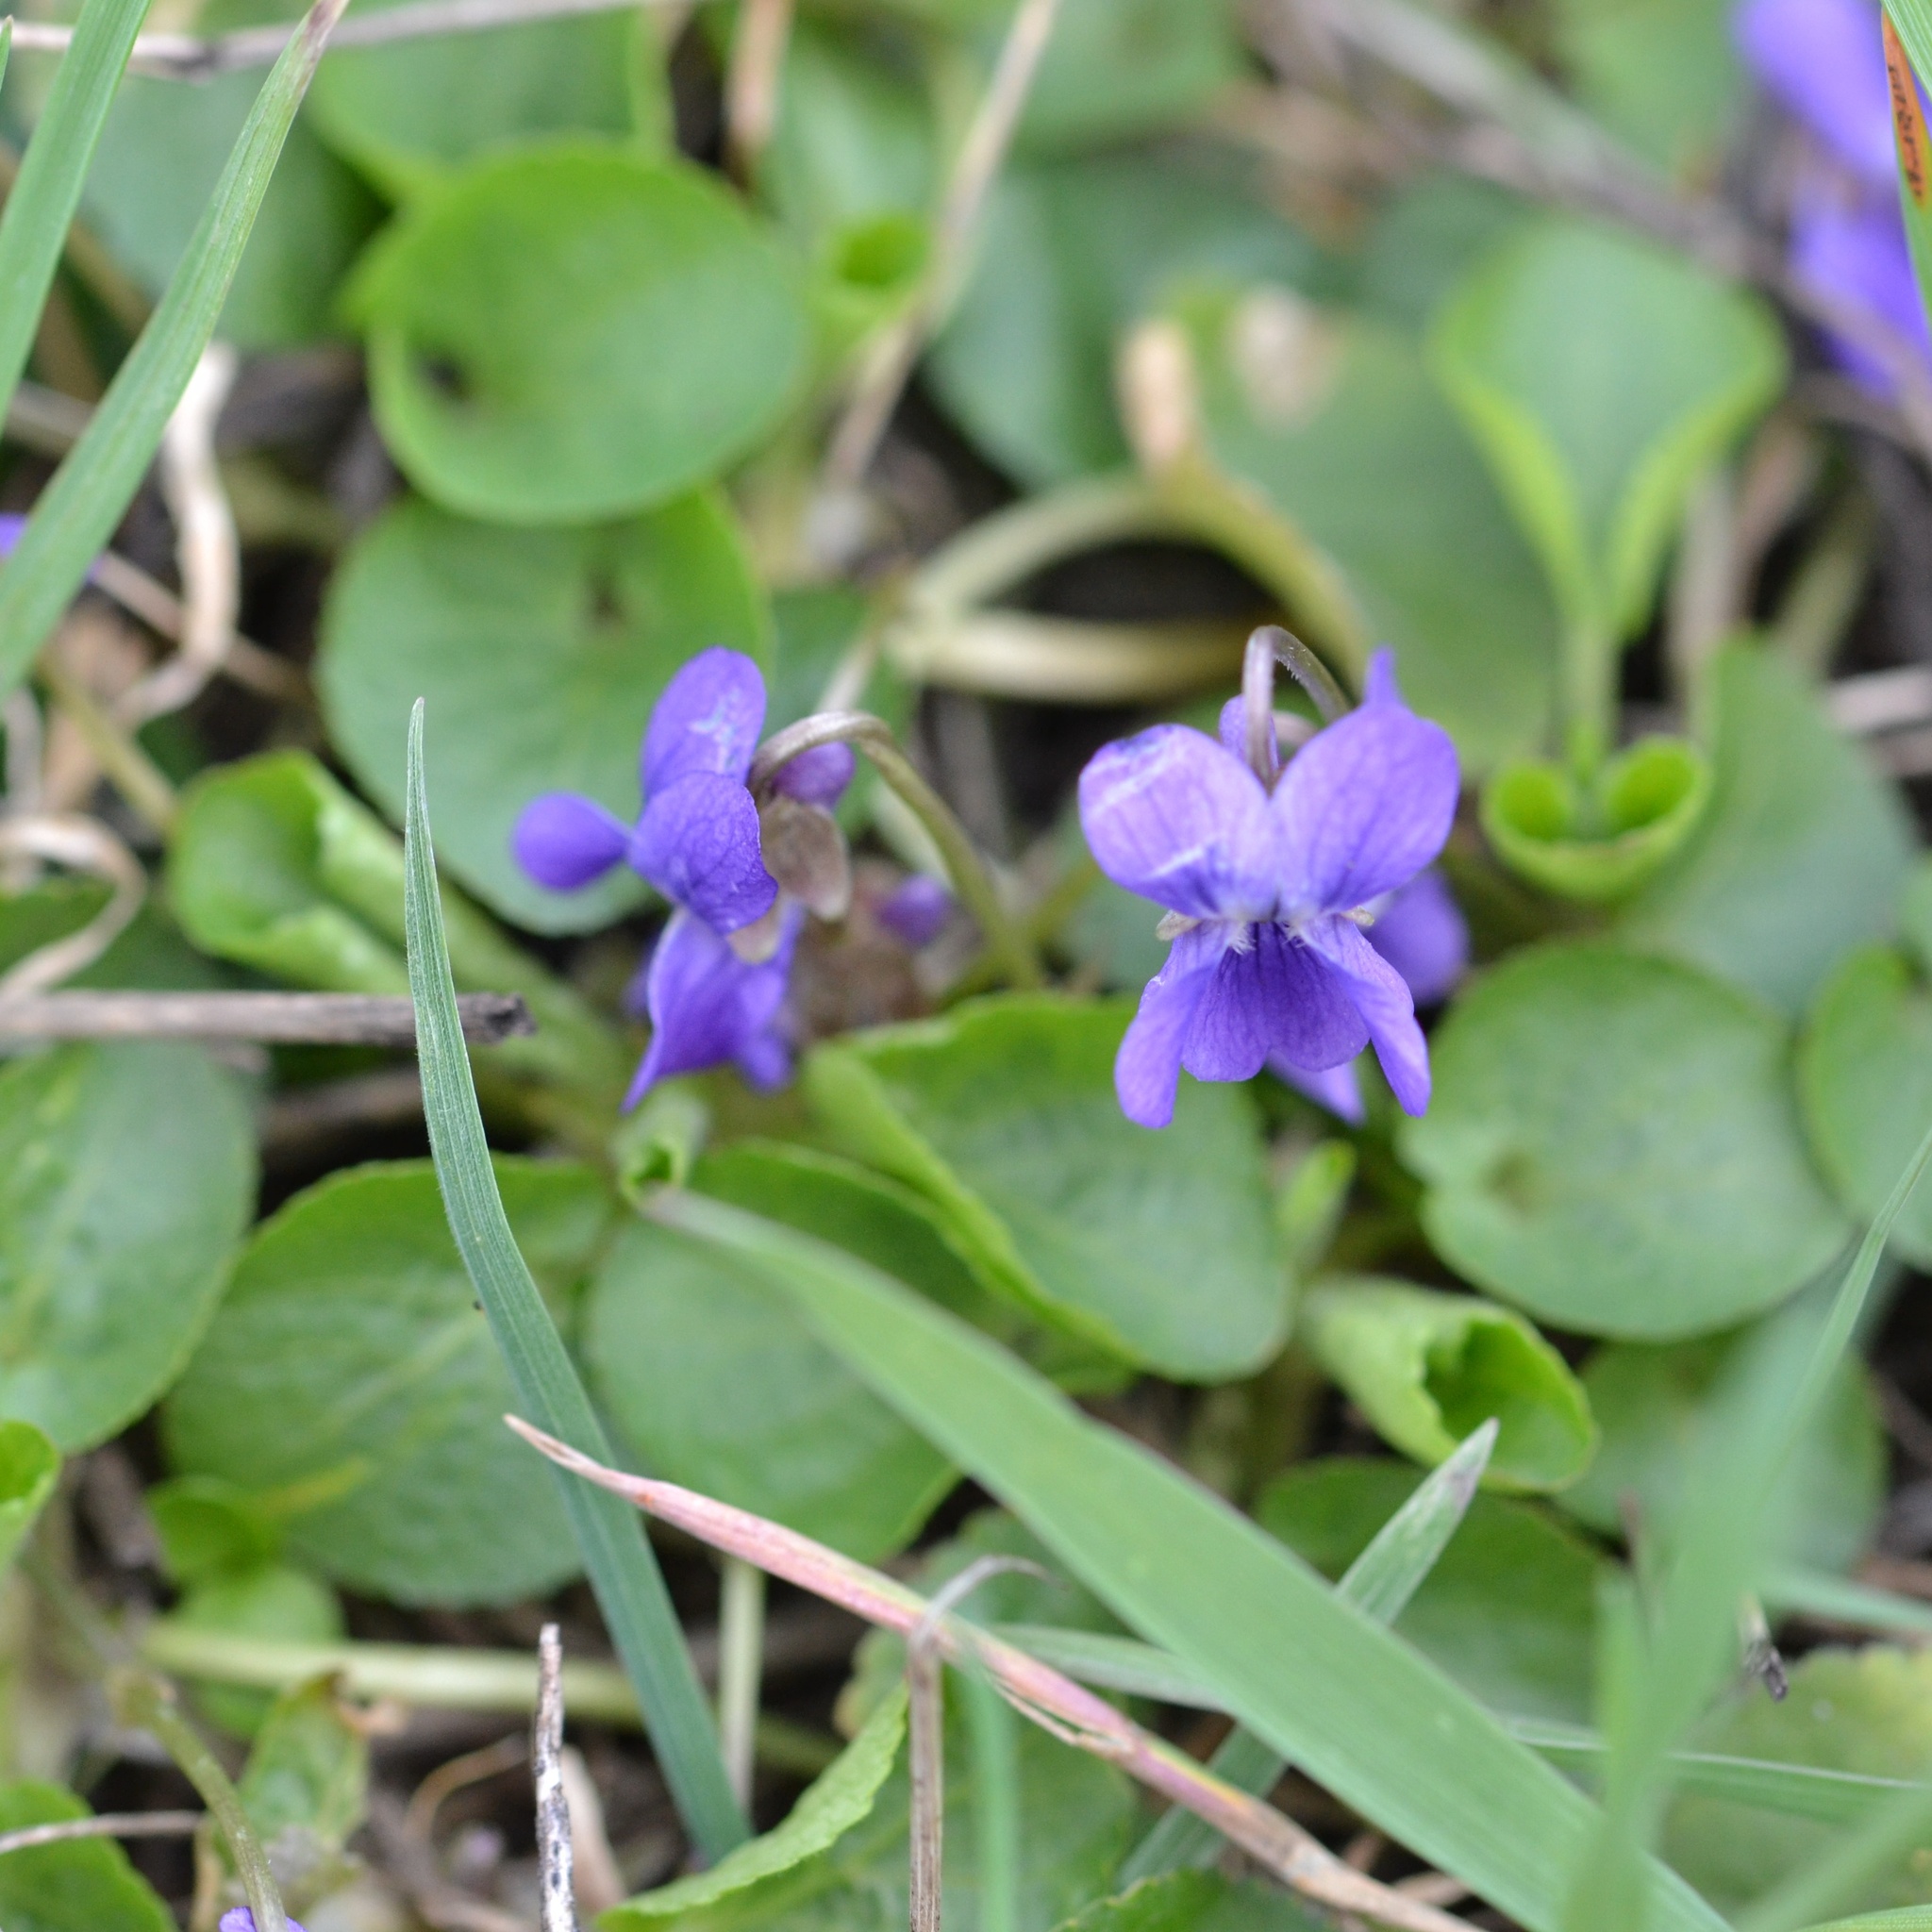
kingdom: Plantae
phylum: Tracheophyta
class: Magnoliopsida
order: Malpighiales
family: Violaceae
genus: Viola
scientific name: Viola odorata
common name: Sweet violet
